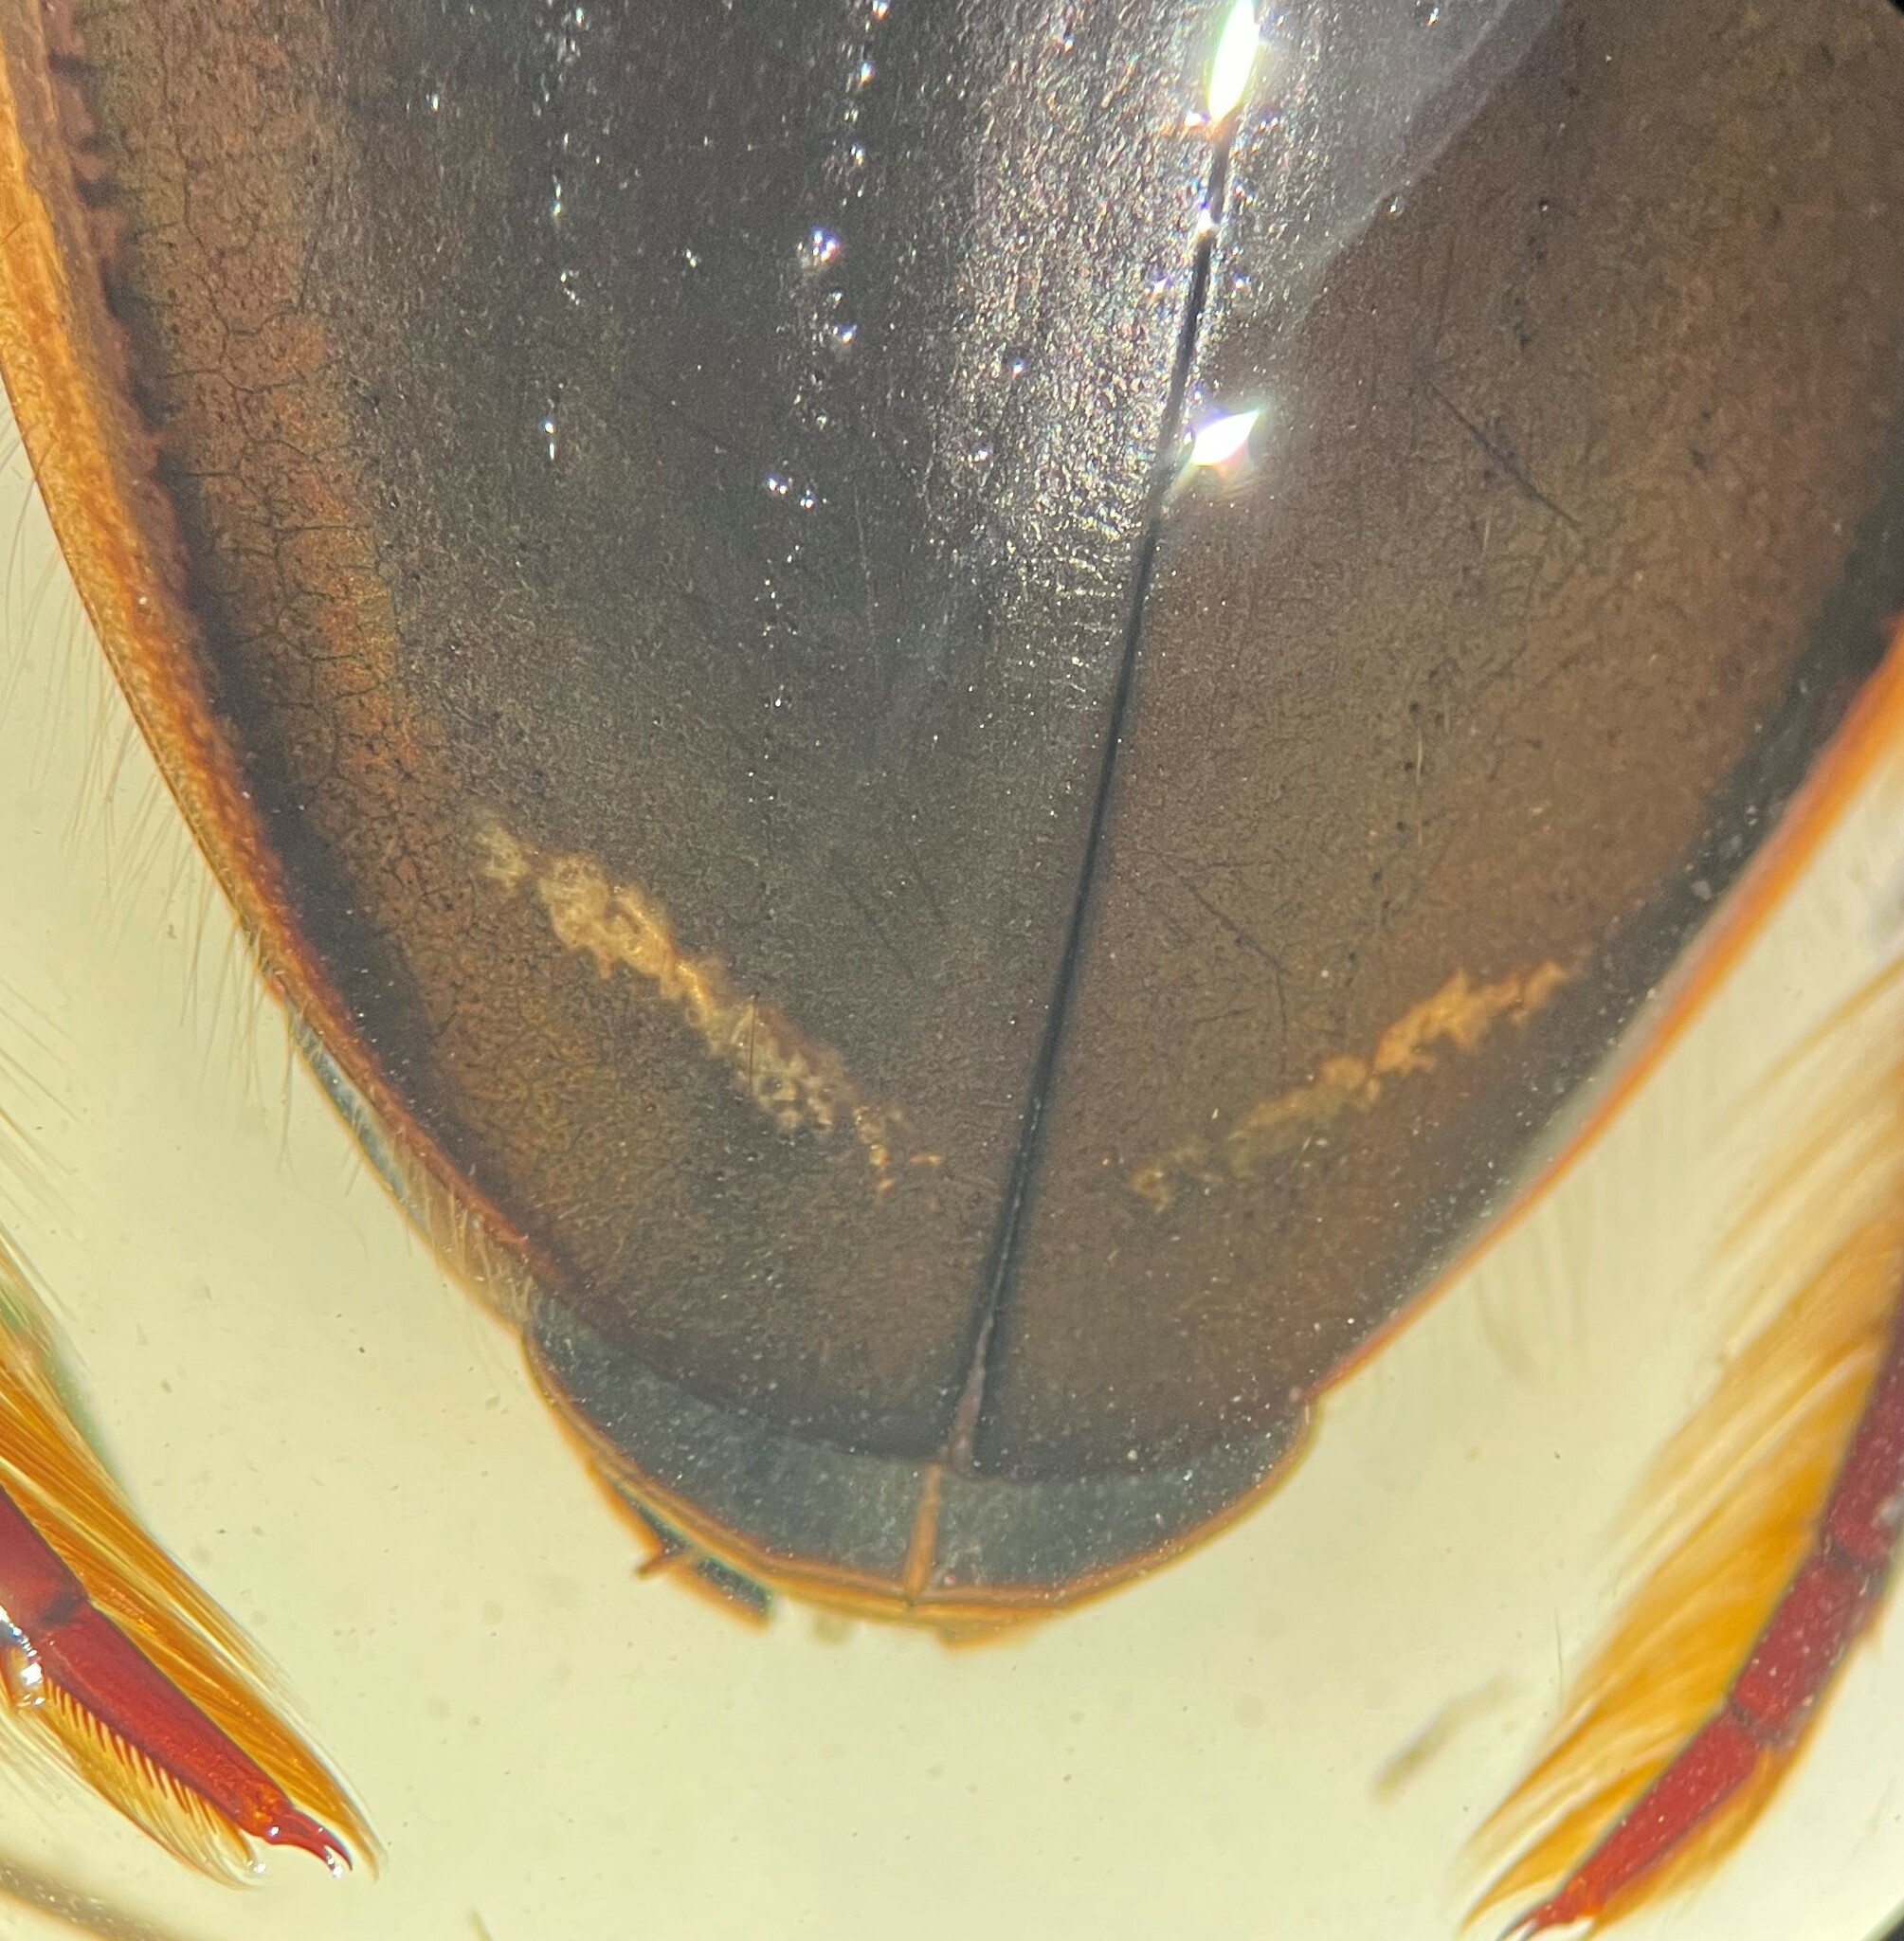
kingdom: Animalia
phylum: Arthropoda
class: Insecta
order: Coleoptera
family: Dytiscidae
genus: Dytiscus
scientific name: Dytiscus verticalis
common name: Vertical diving beetle
